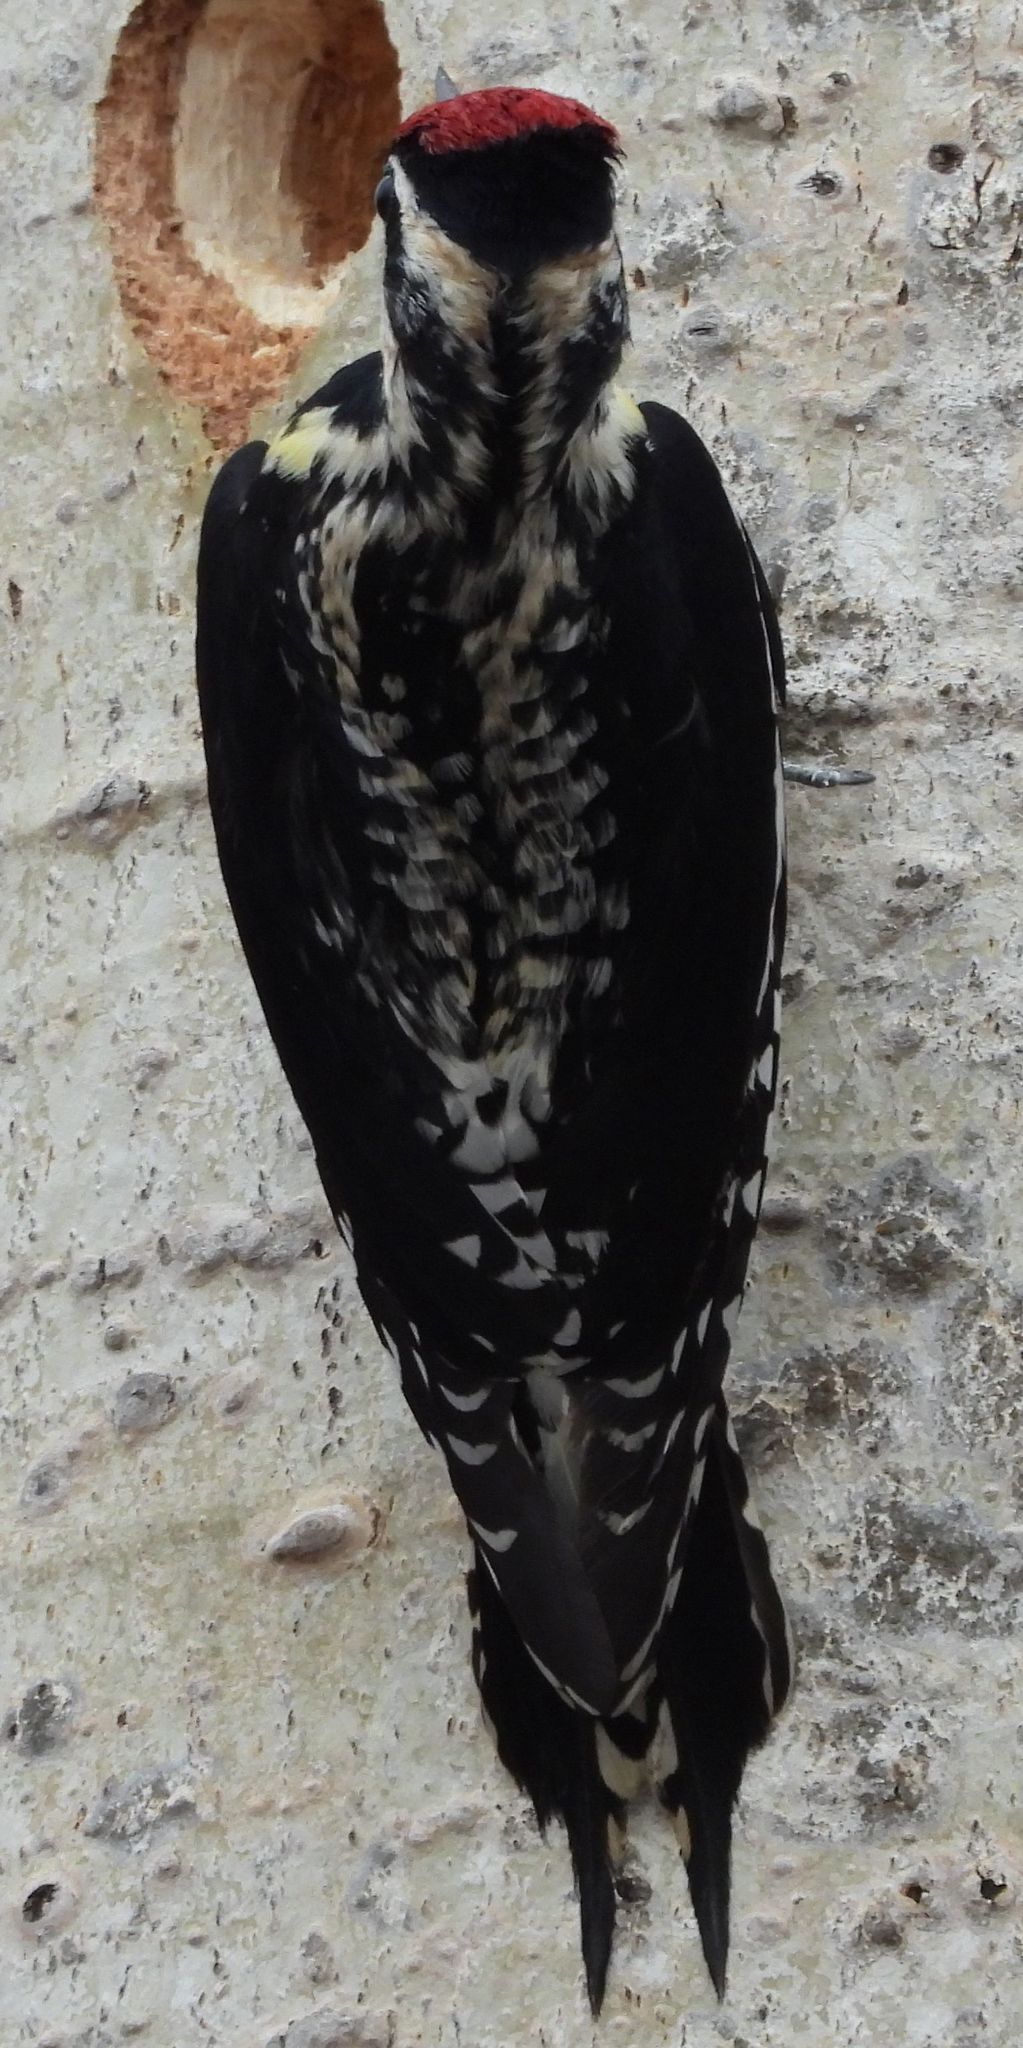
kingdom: Animalia
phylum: Chordata
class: Aves
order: Piciformes
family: Picidae
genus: Sphyrapicus
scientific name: Sphyrapicus varius
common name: Yellow-bellied sapsucker
